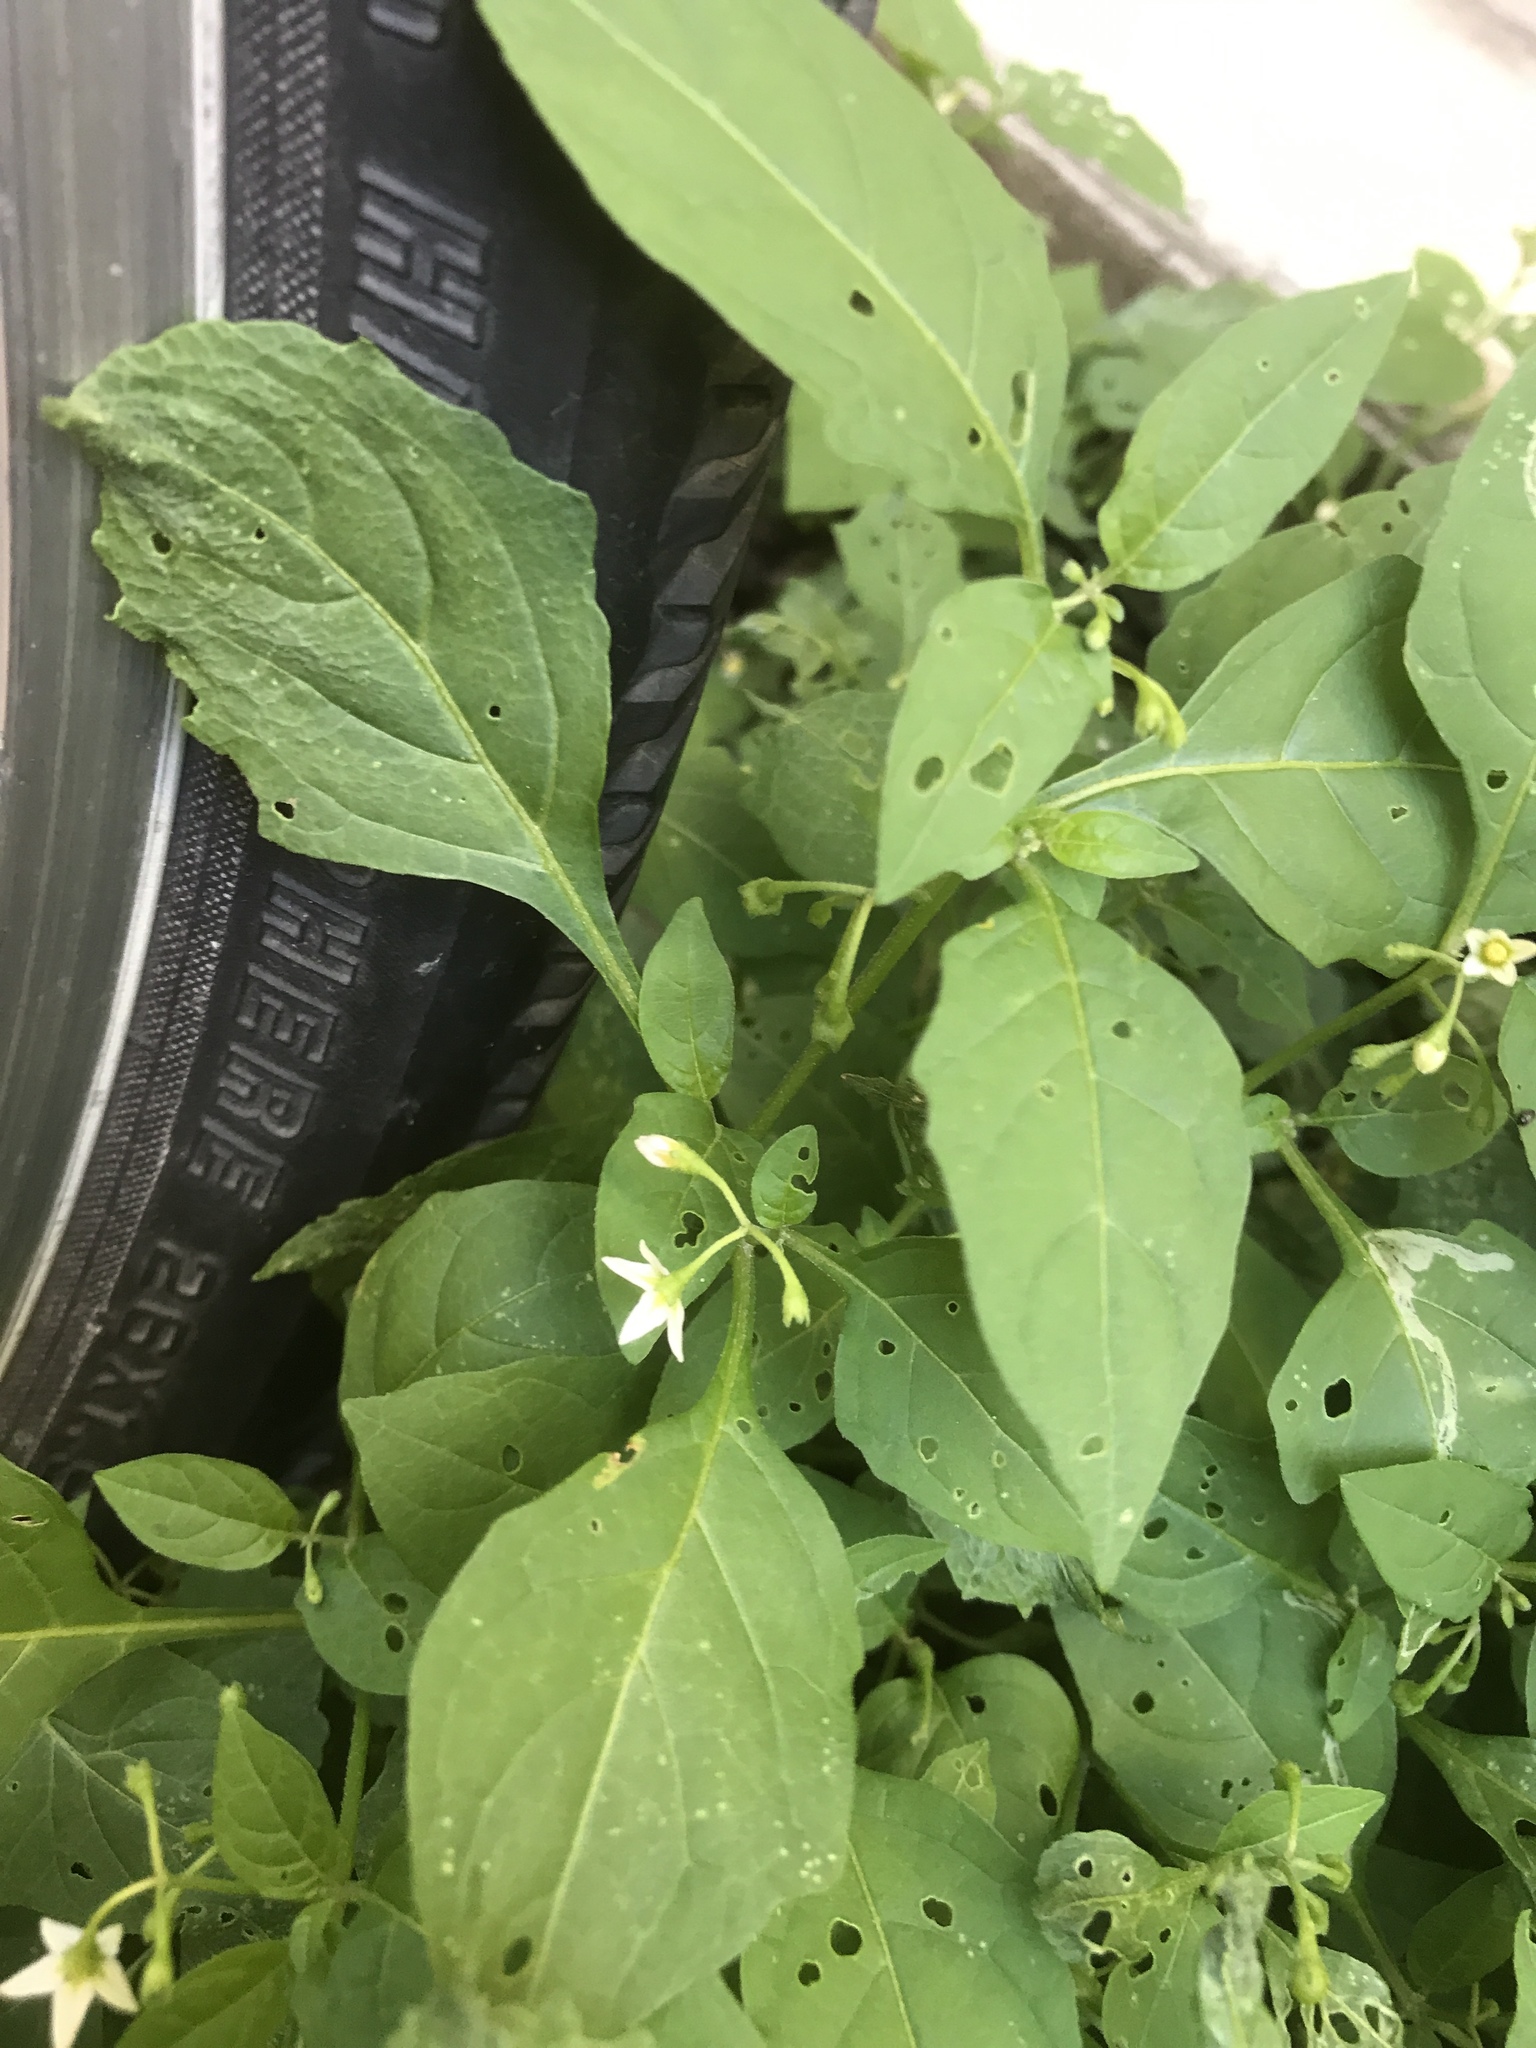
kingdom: Plantae
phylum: Tracheophyta
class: Magnoliopsida
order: Solanales
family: Solanaceae
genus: Solanum
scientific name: Solanum emulans
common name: Eastern black nightshade
